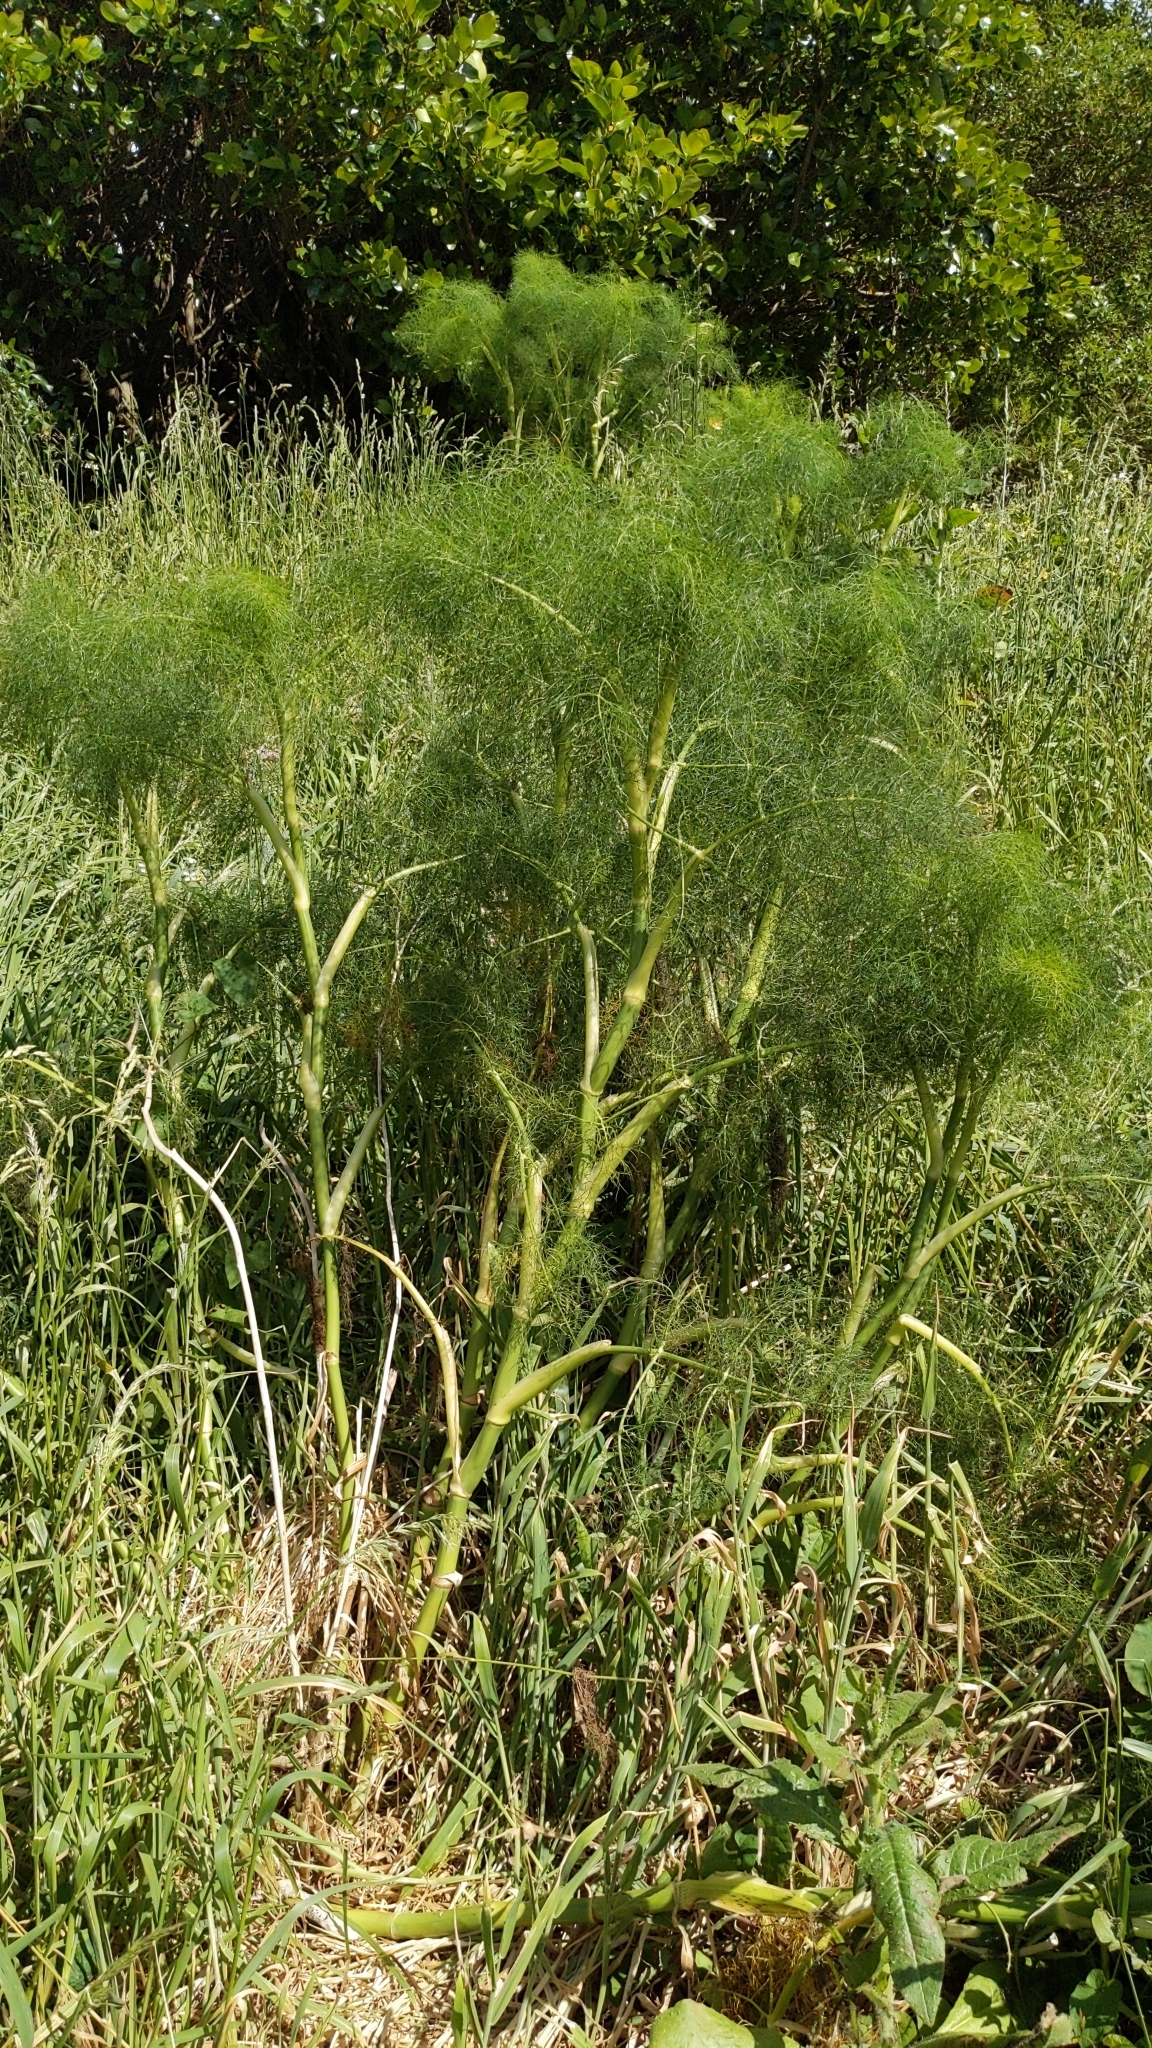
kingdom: Plantae
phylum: Tracheophyta
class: Magnoliopsida
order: Apiales
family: Apiaceae
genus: Foeniculum
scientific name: Foeniculum vulgare
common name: Fennel
